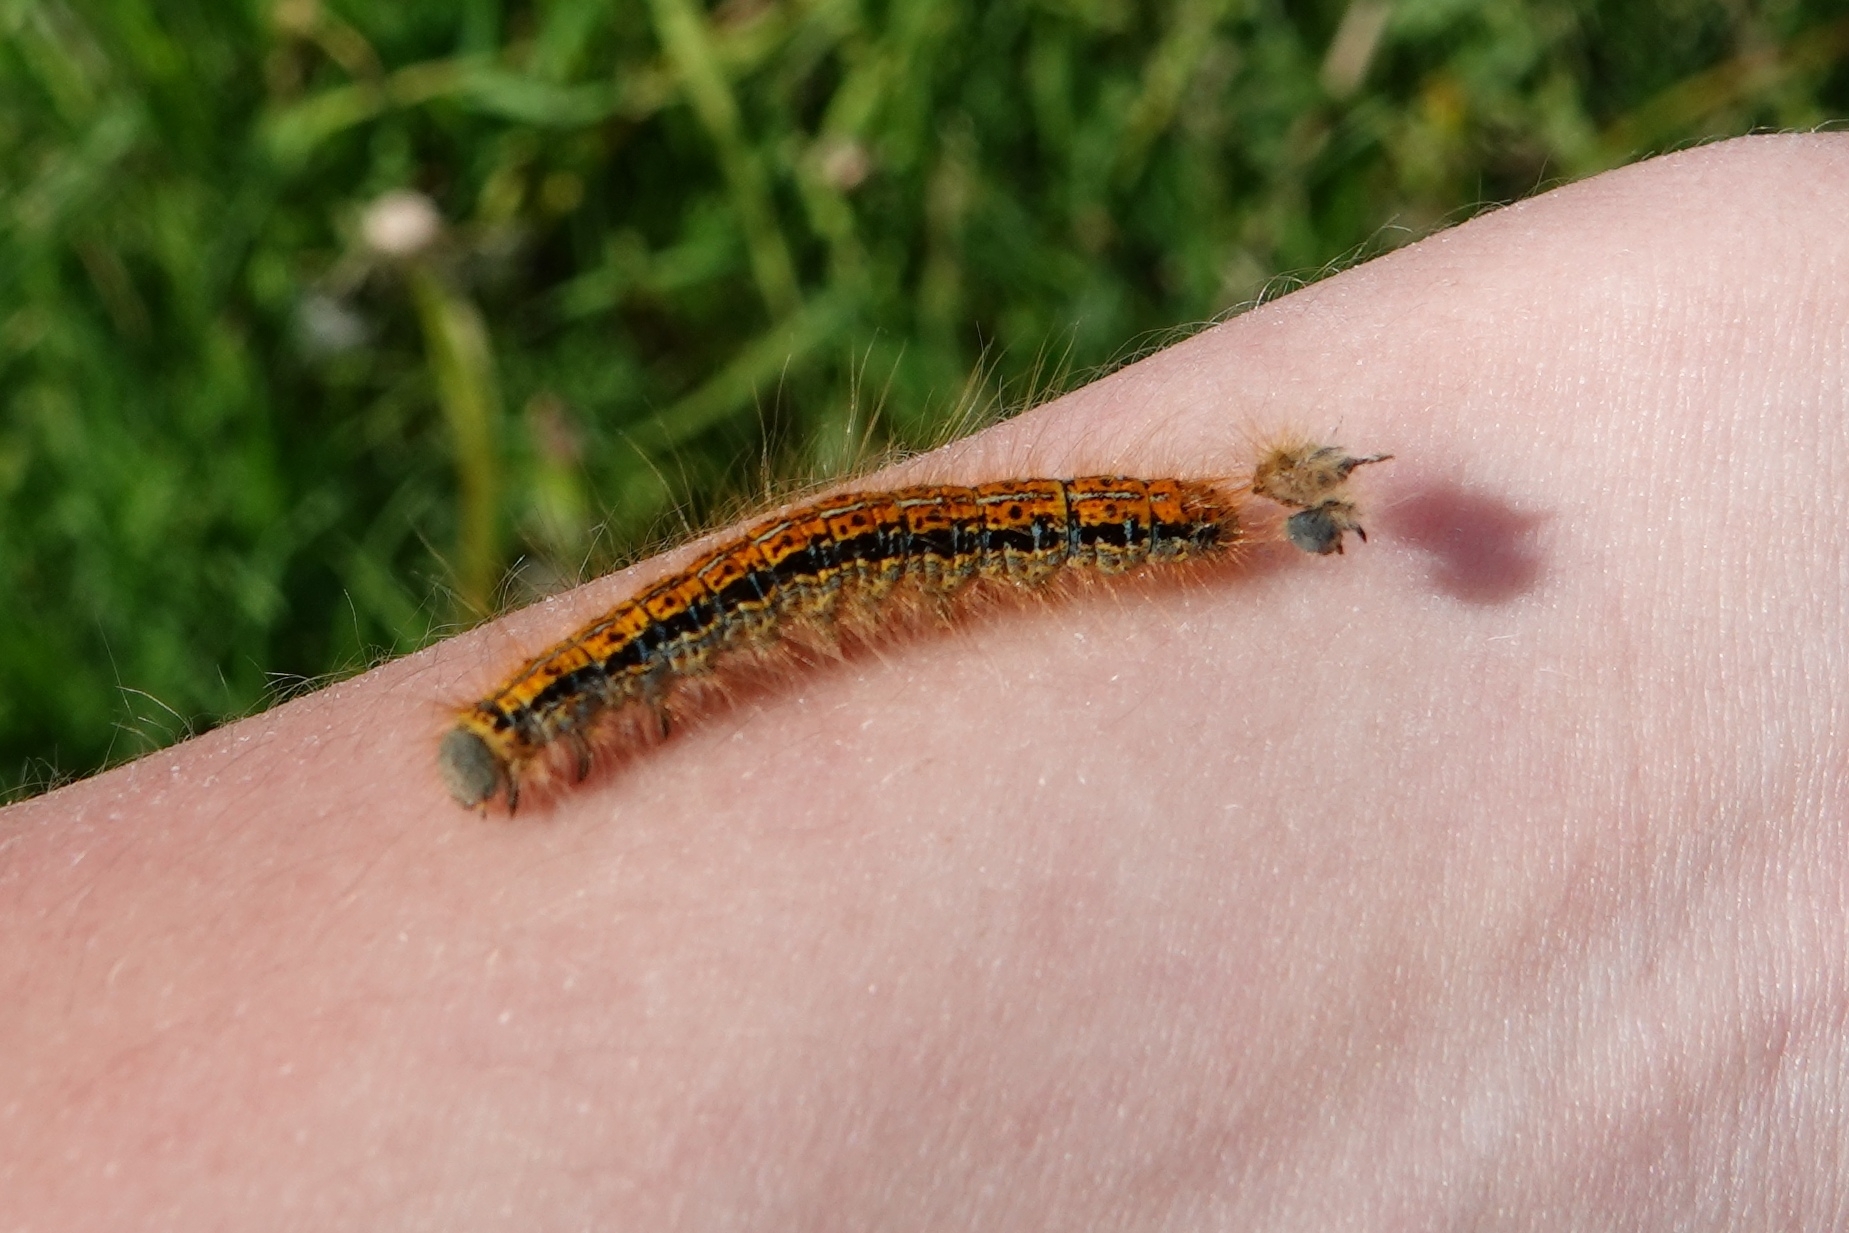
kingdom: Animalia
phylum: Arthropoda
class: Insecta
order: Lepidoptera
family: Lasiocampidae
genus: Malacosoma
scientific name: Malacosoma castrense
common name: Ground lackey
